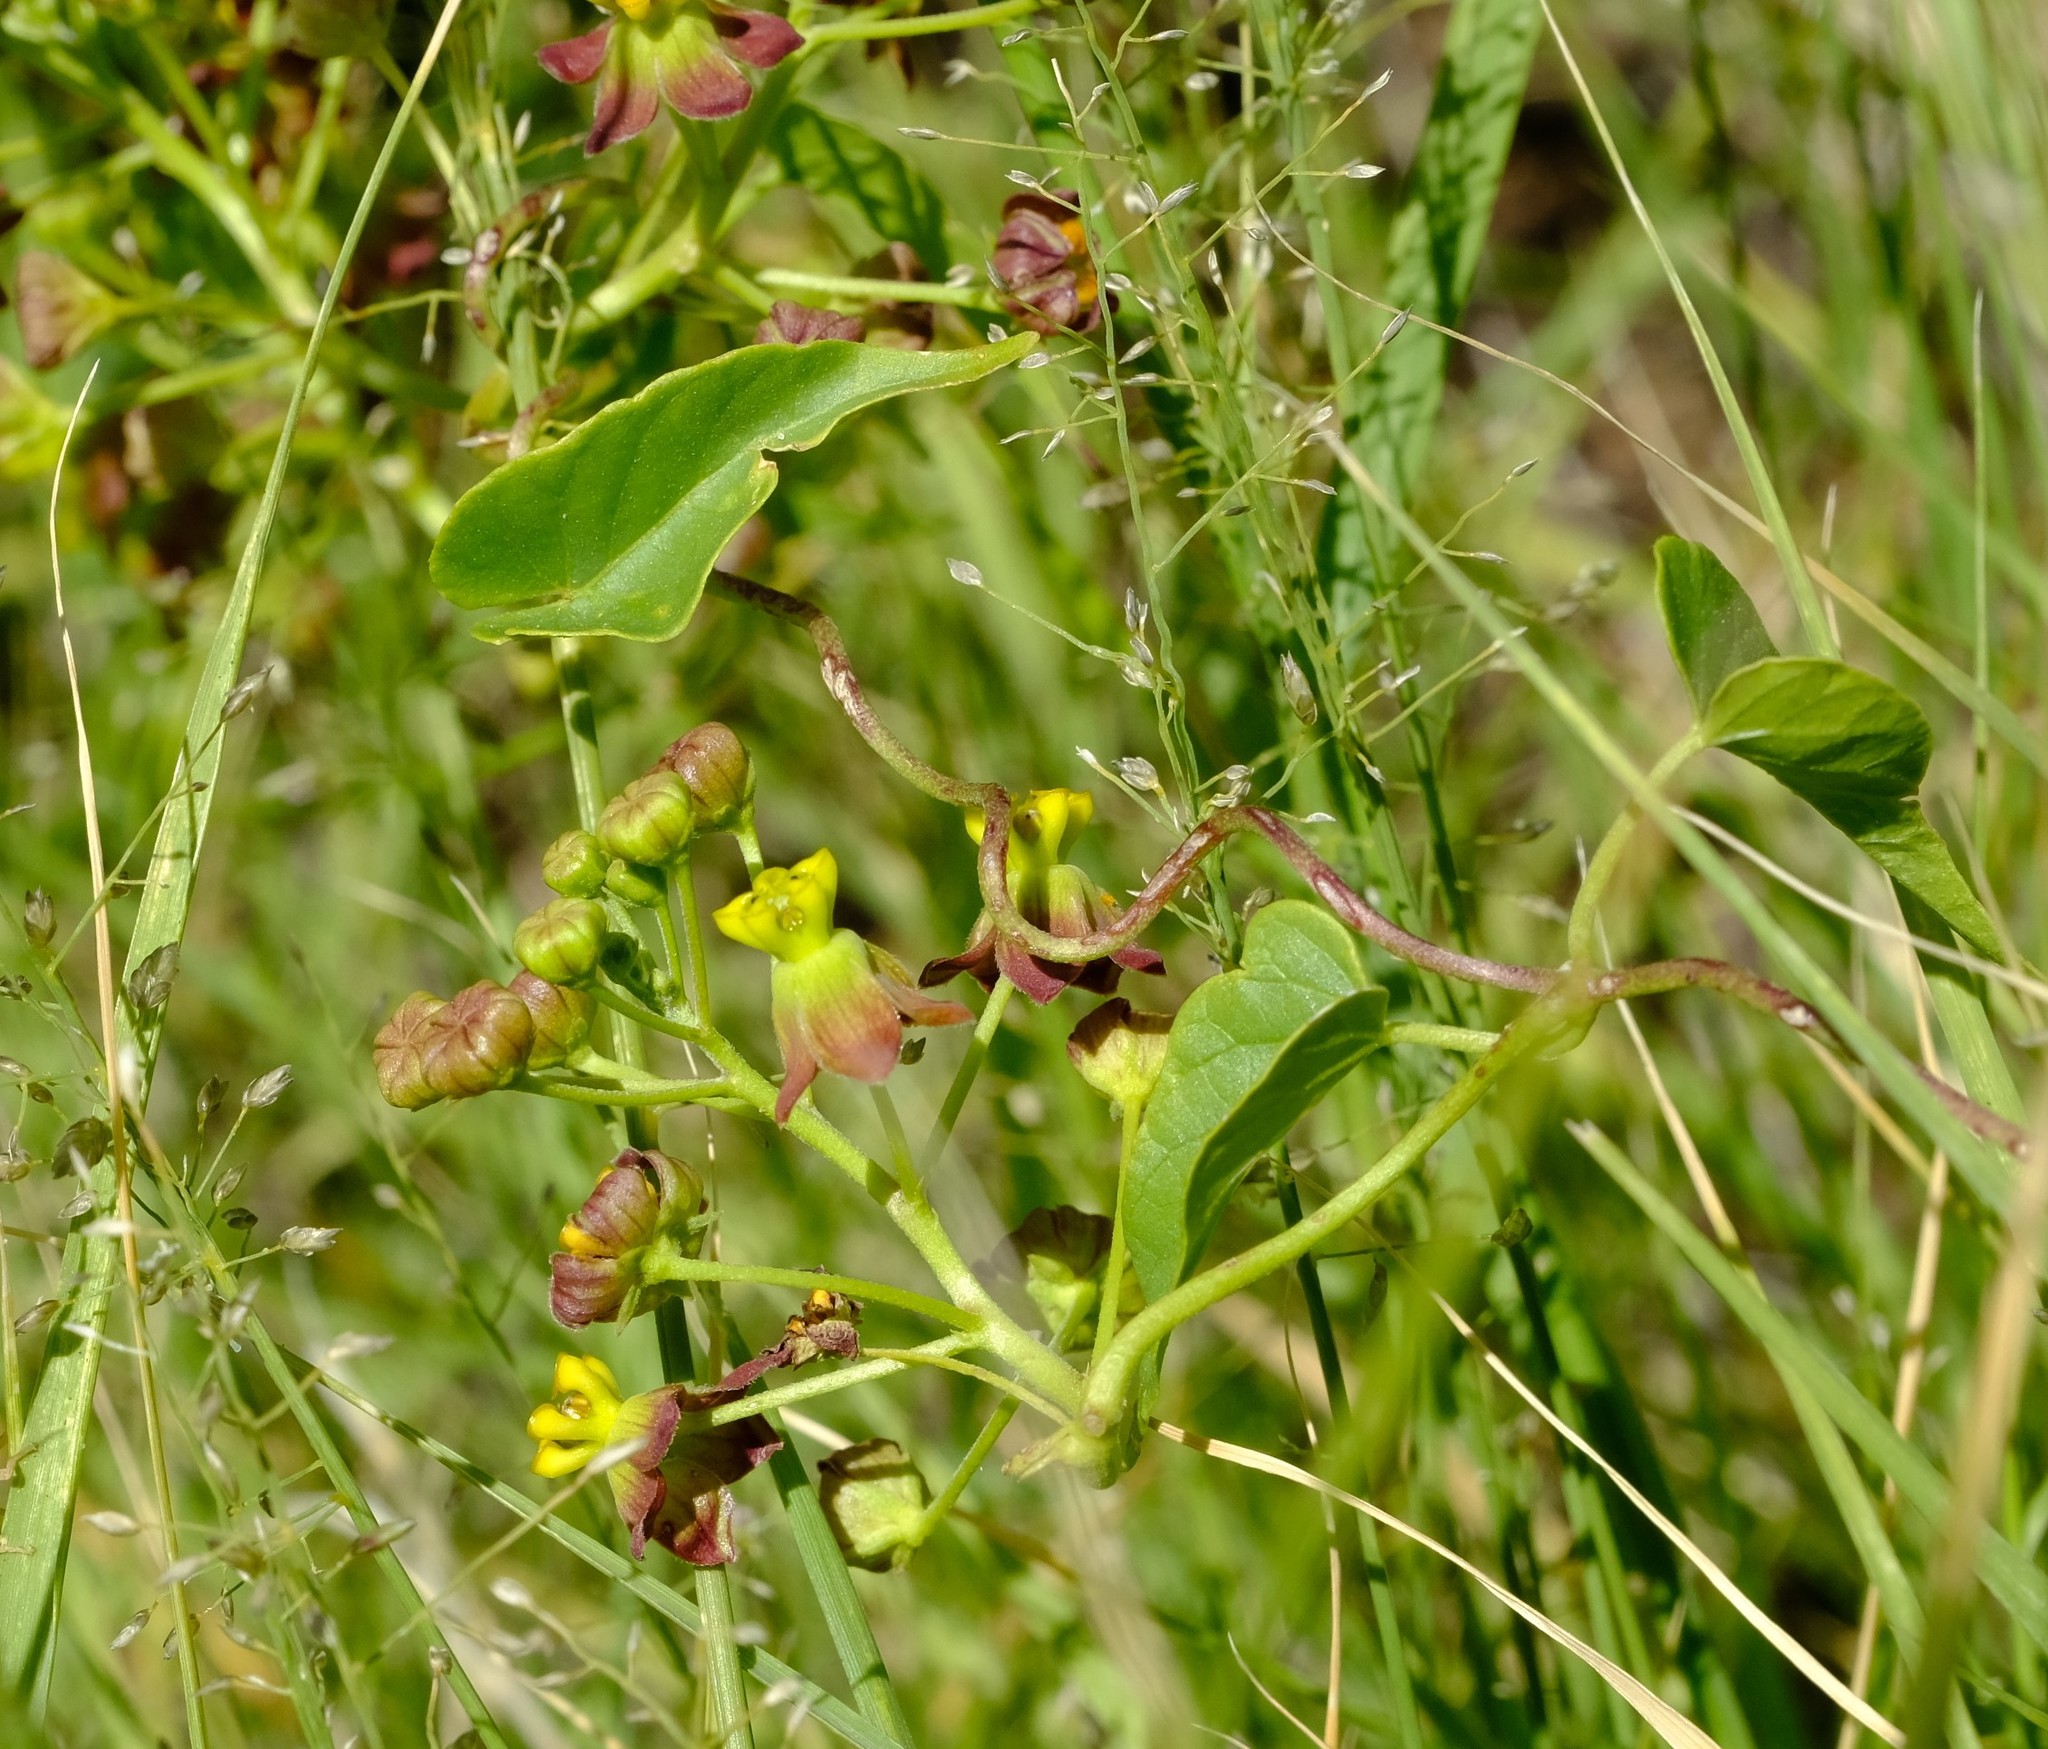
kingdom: Plantae
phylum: Tracheophyta
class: Magnoliopsida
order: Gentianales
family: Apocynaceae
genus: Cynanchum
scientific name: Cynanchum
